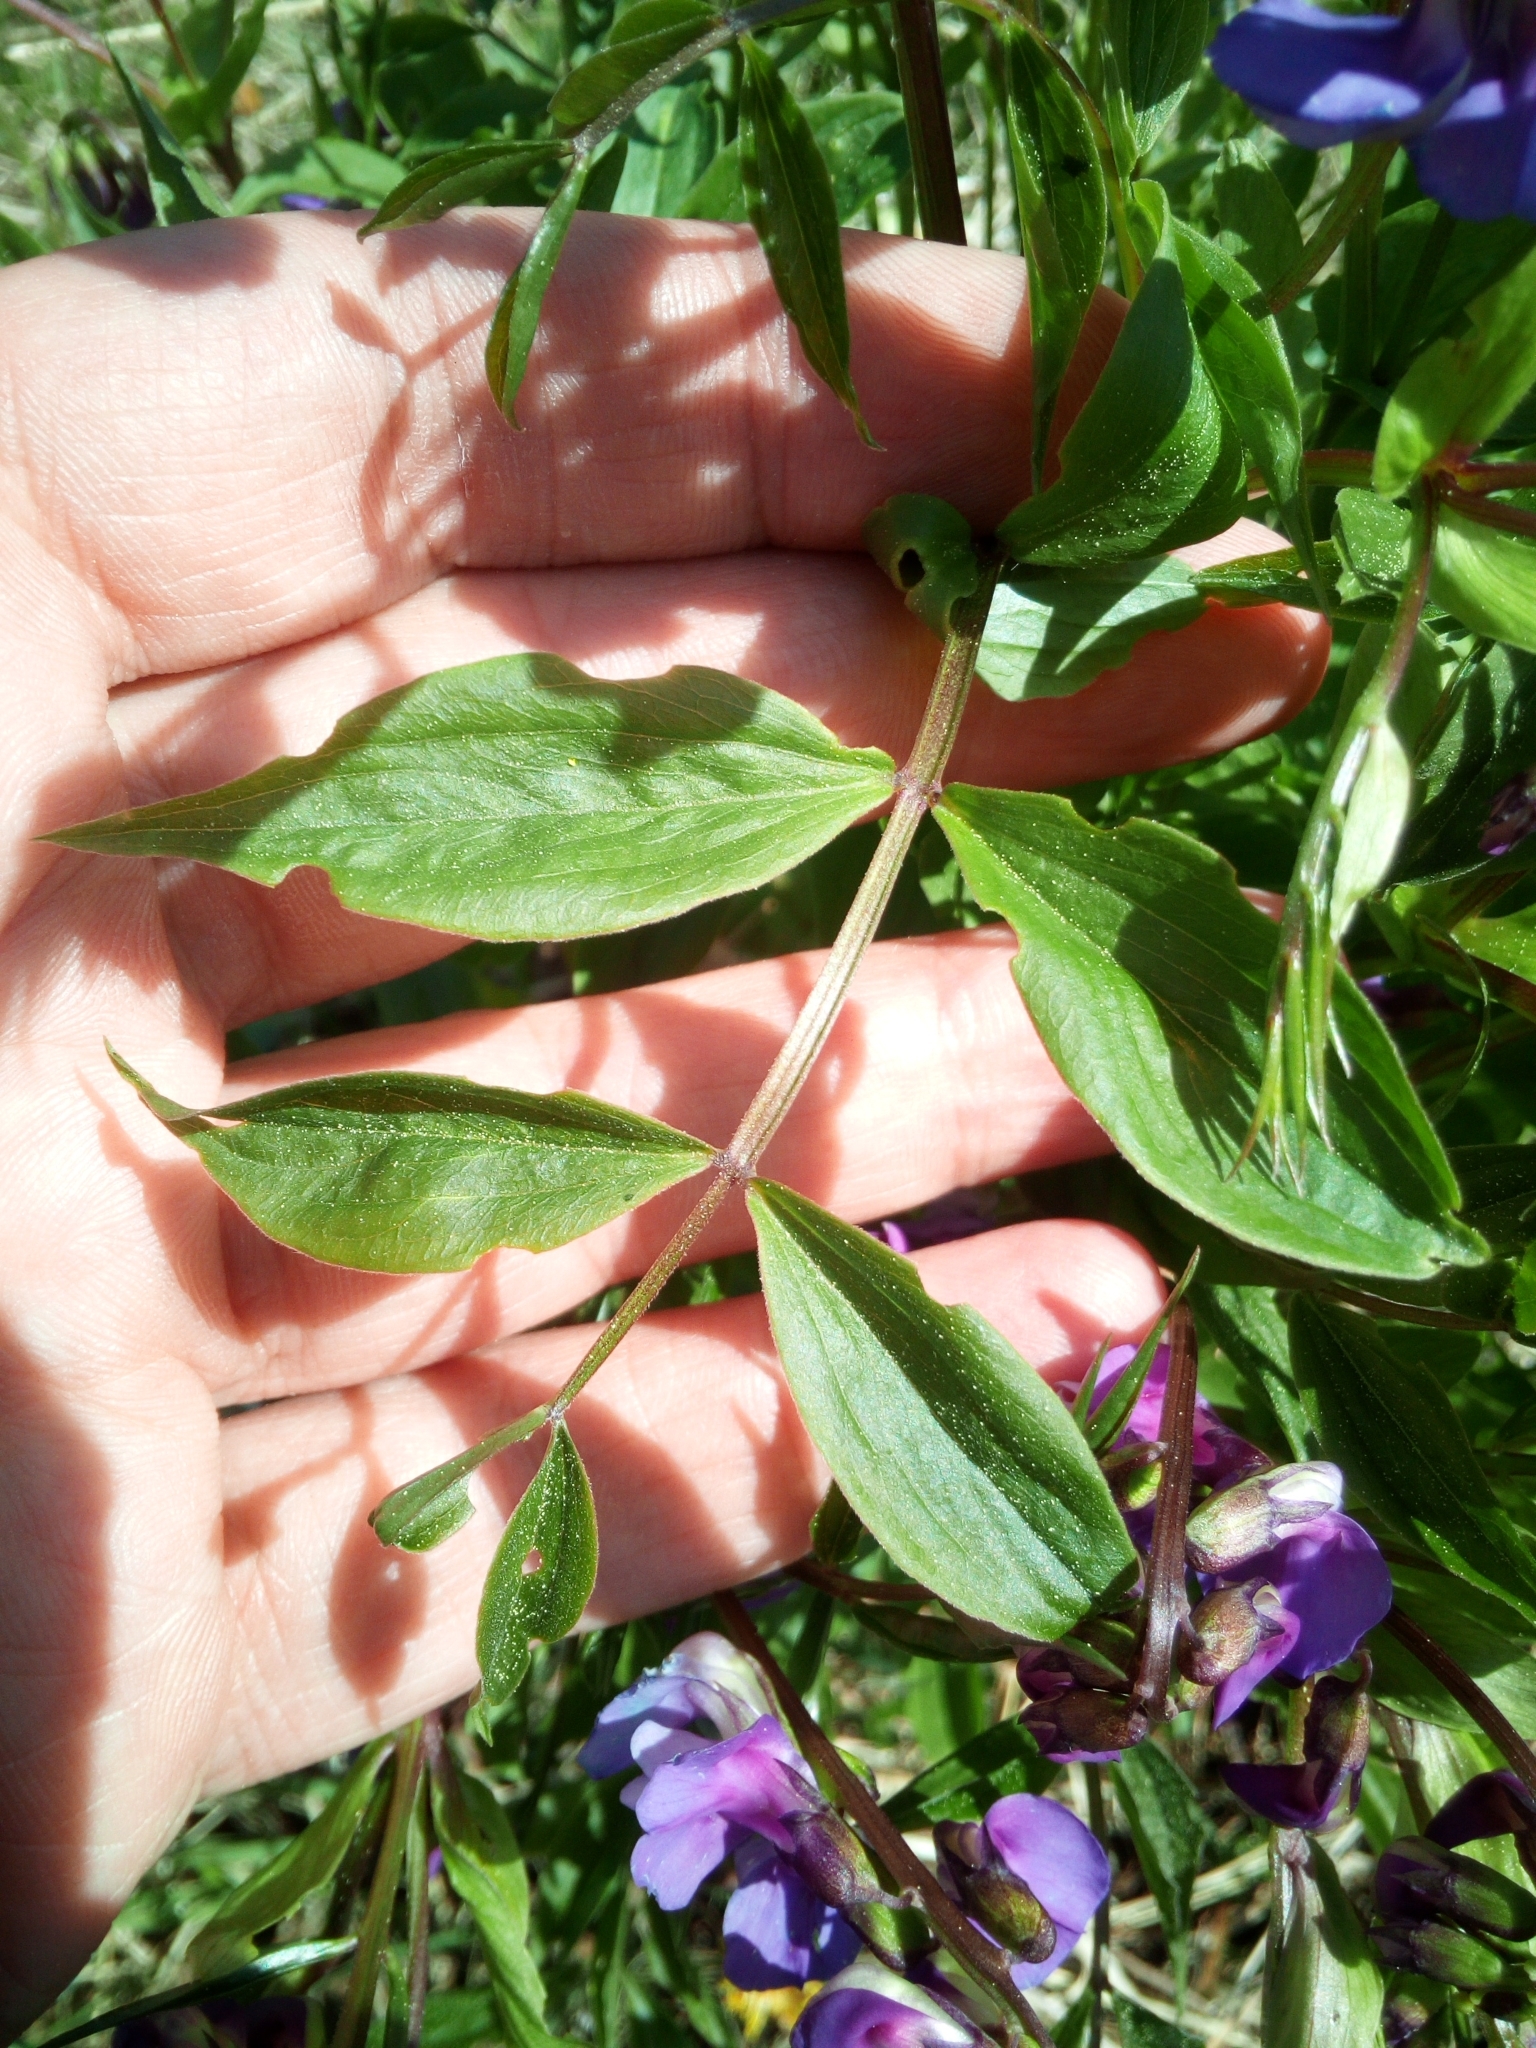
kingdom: Plantae
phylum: Tracheophyta
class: Magnoliopsida
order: Fabales
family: Fabaceae
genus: Lathyrus
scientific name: Lathyrus vernus
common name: Spring pea
